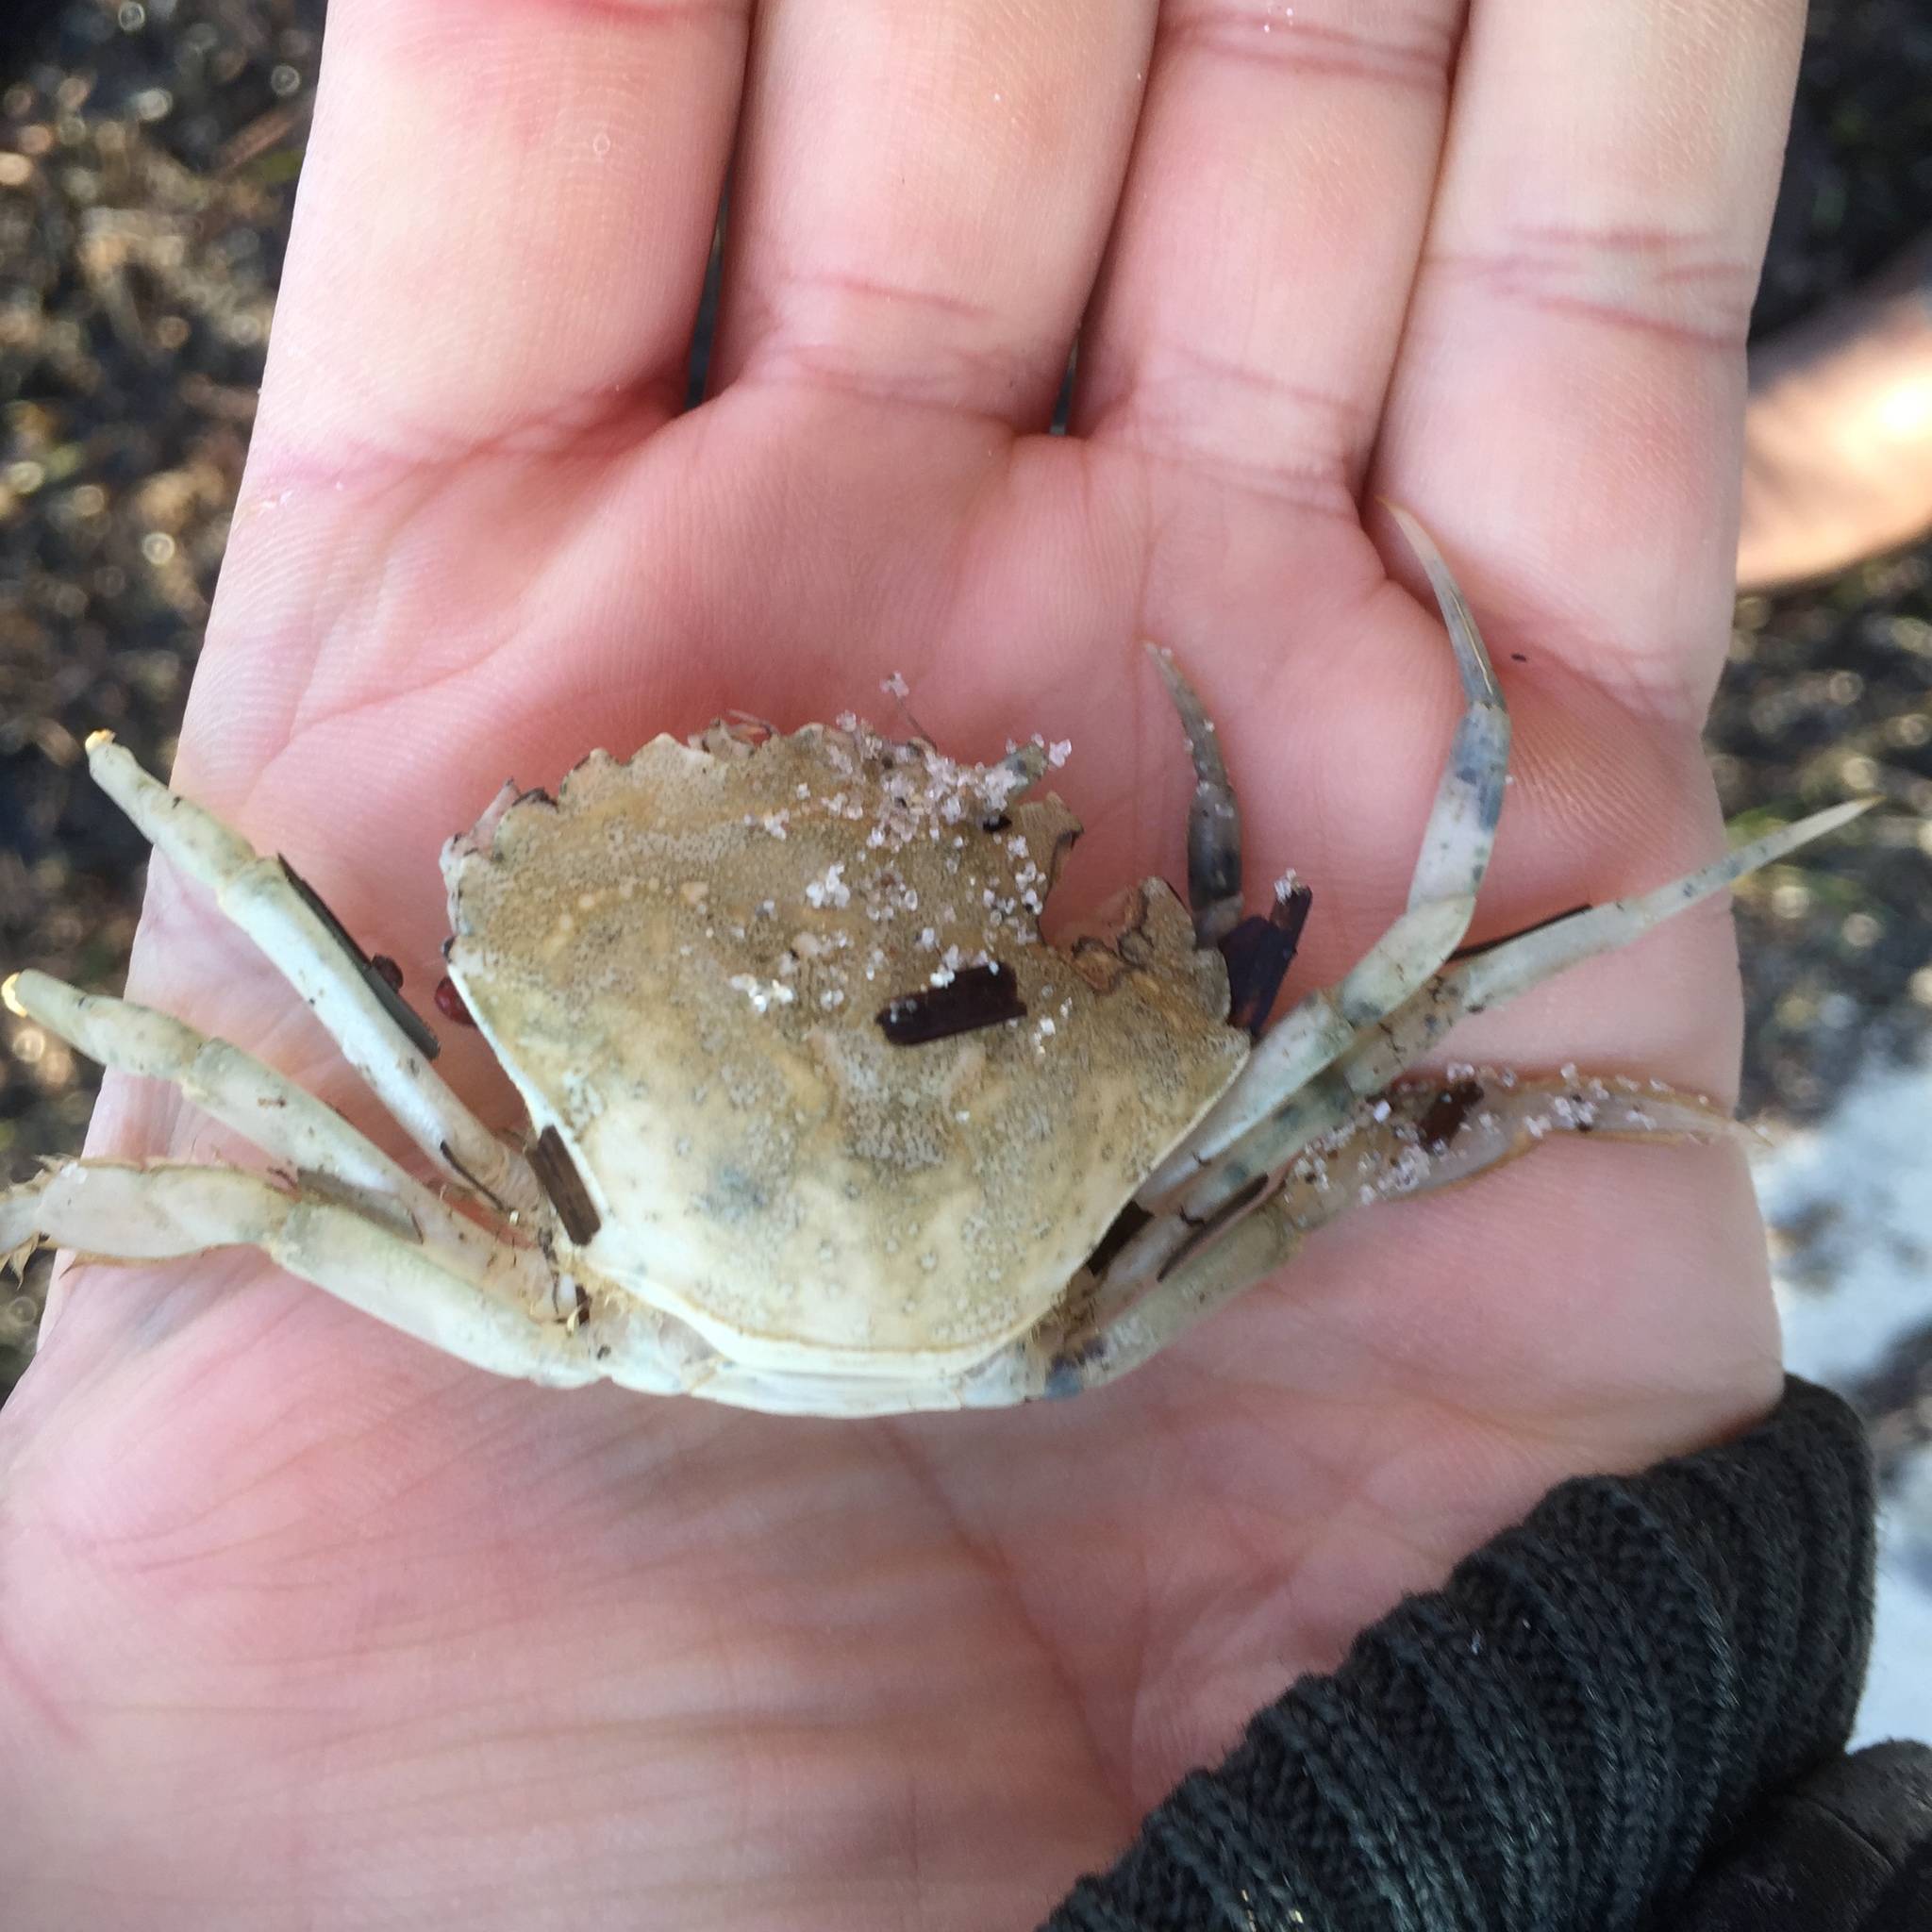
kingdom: Animalia
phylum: Arthropoda
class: Malacostraca
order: Decapoda
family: Carcinidae
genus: Carcinus
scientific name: Carcinus maenas
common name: European green crab
